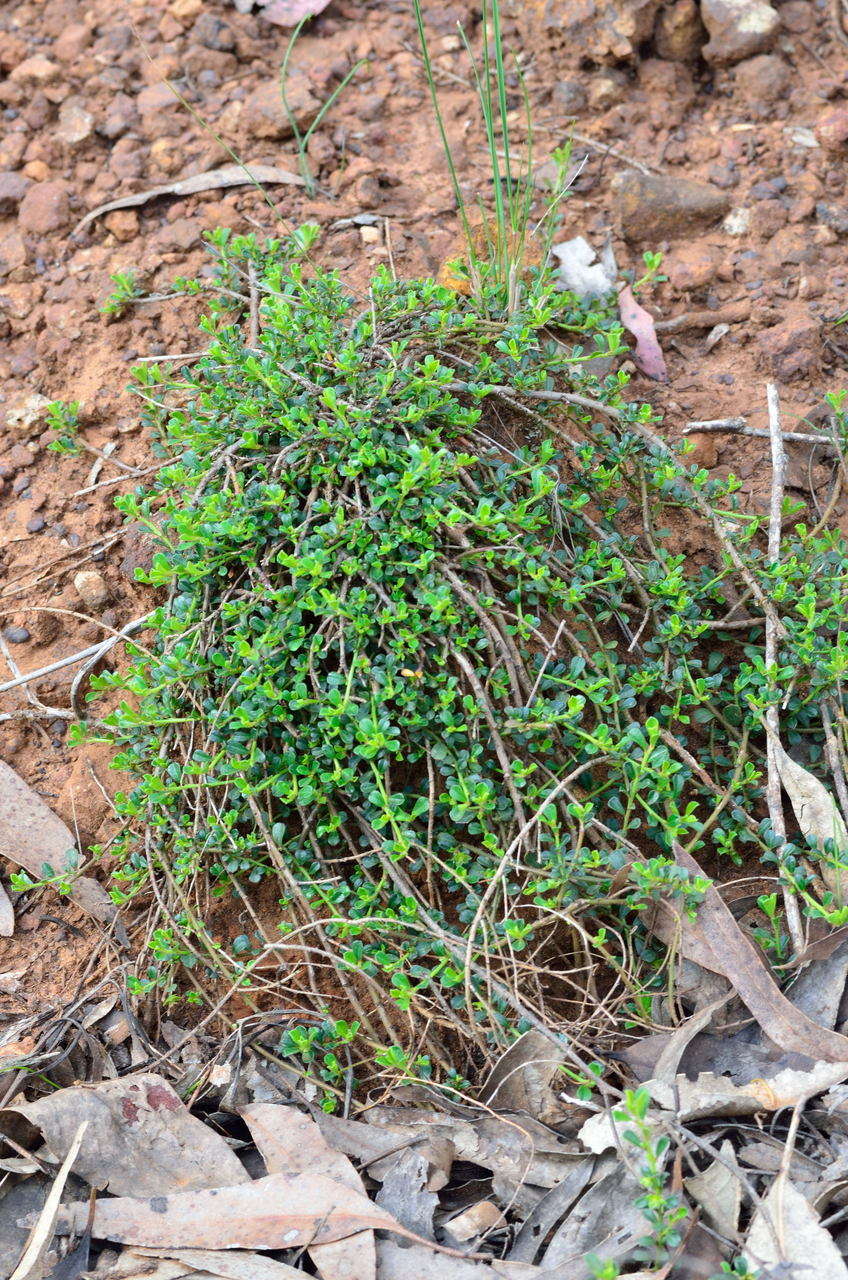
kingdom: Plantae
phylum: Tracheophyta
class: Magnoliopsida
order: Malpighiales
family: Phyllanthaceae
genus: Phyllanthus
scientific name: Phyllanthus hirtellus
